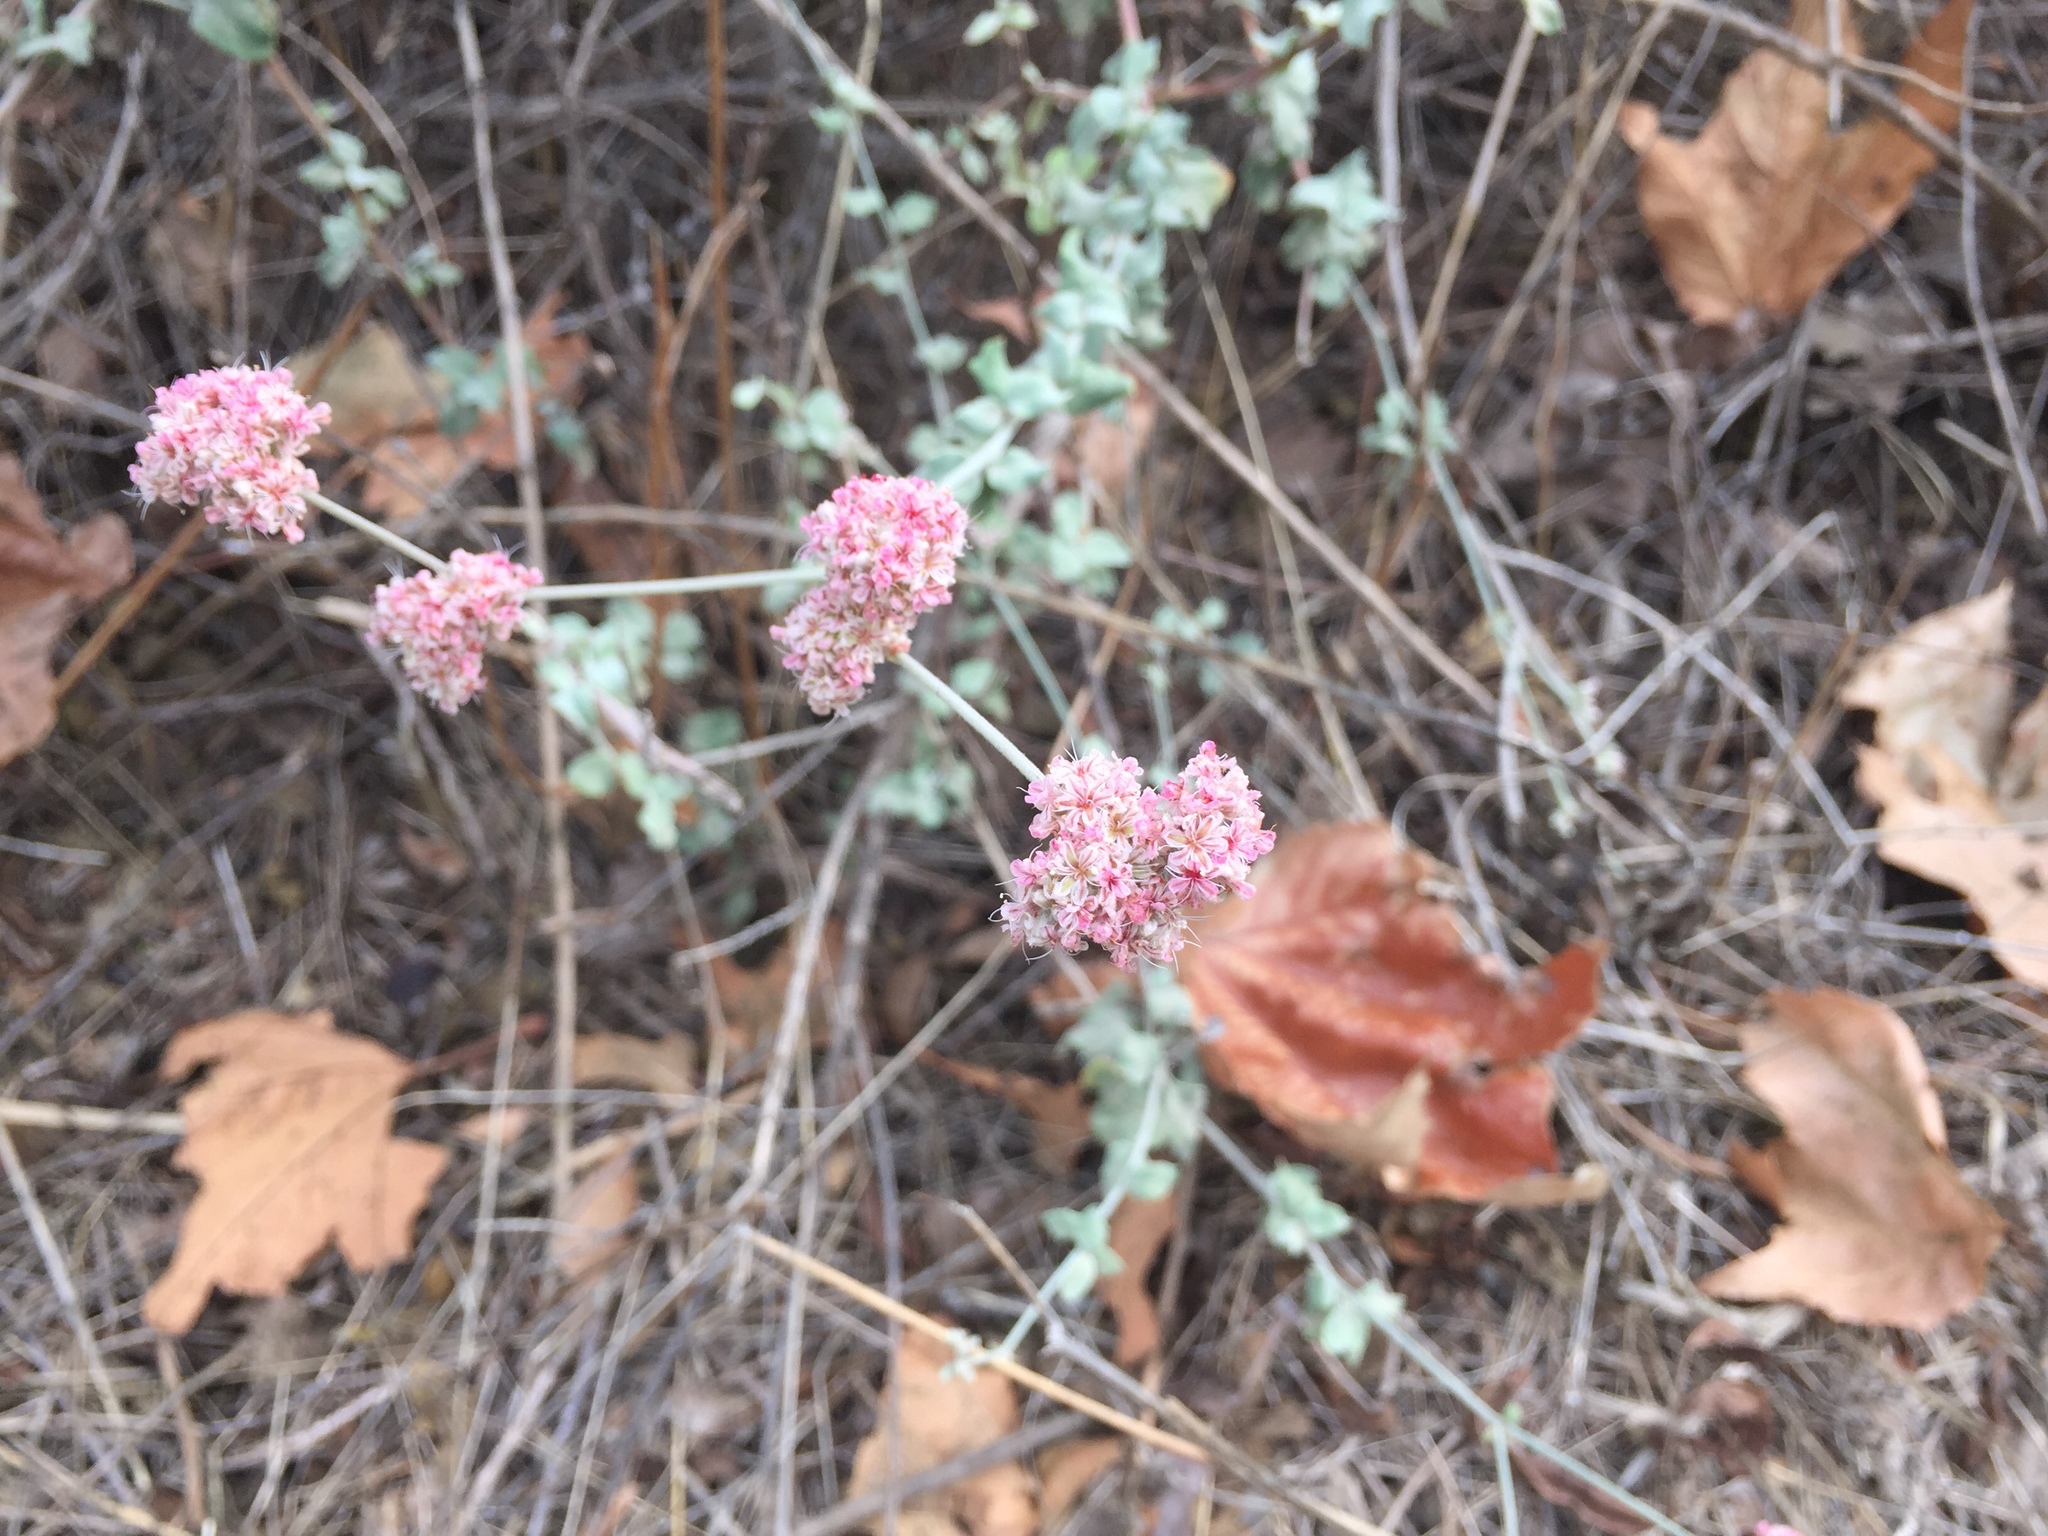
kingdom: Plantae
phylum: Tracheophyta
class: Magnoliopsida
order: Caryophyllales
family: Polygonaceae
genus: Eriogonum
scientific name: Eriogonum cinereum
